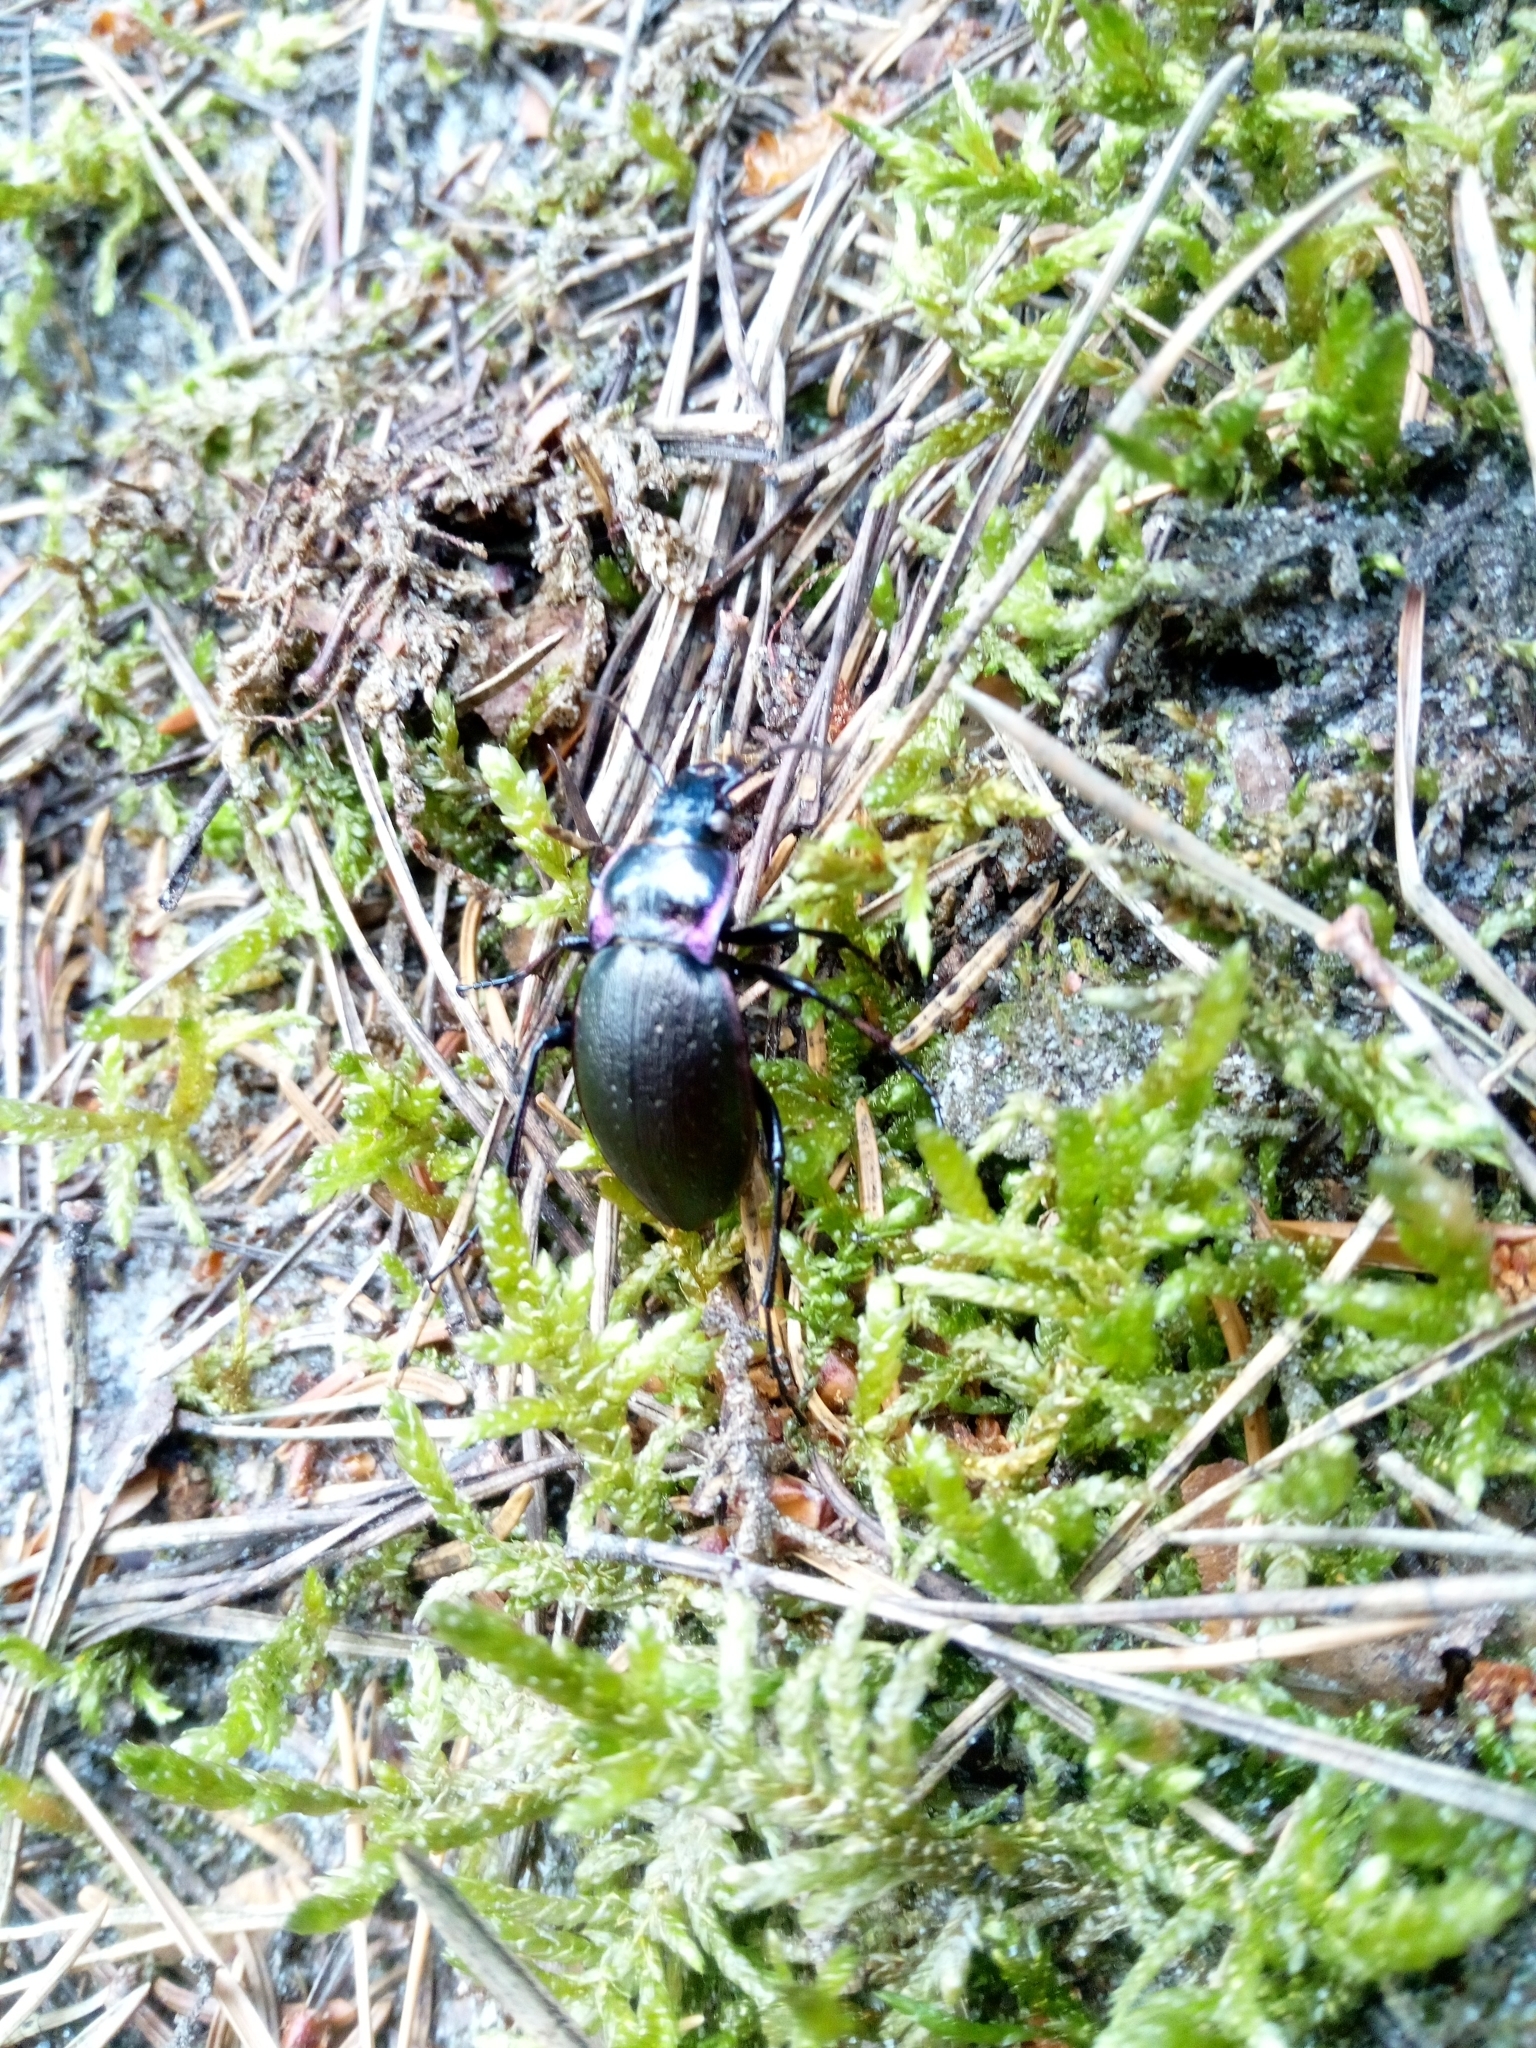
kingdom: Animalia
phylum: Arthropoda
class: Insecta
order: Coleoptera
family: Carabidae
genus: Carabus
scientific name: Carabus nemoralis
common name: European ground beetle
